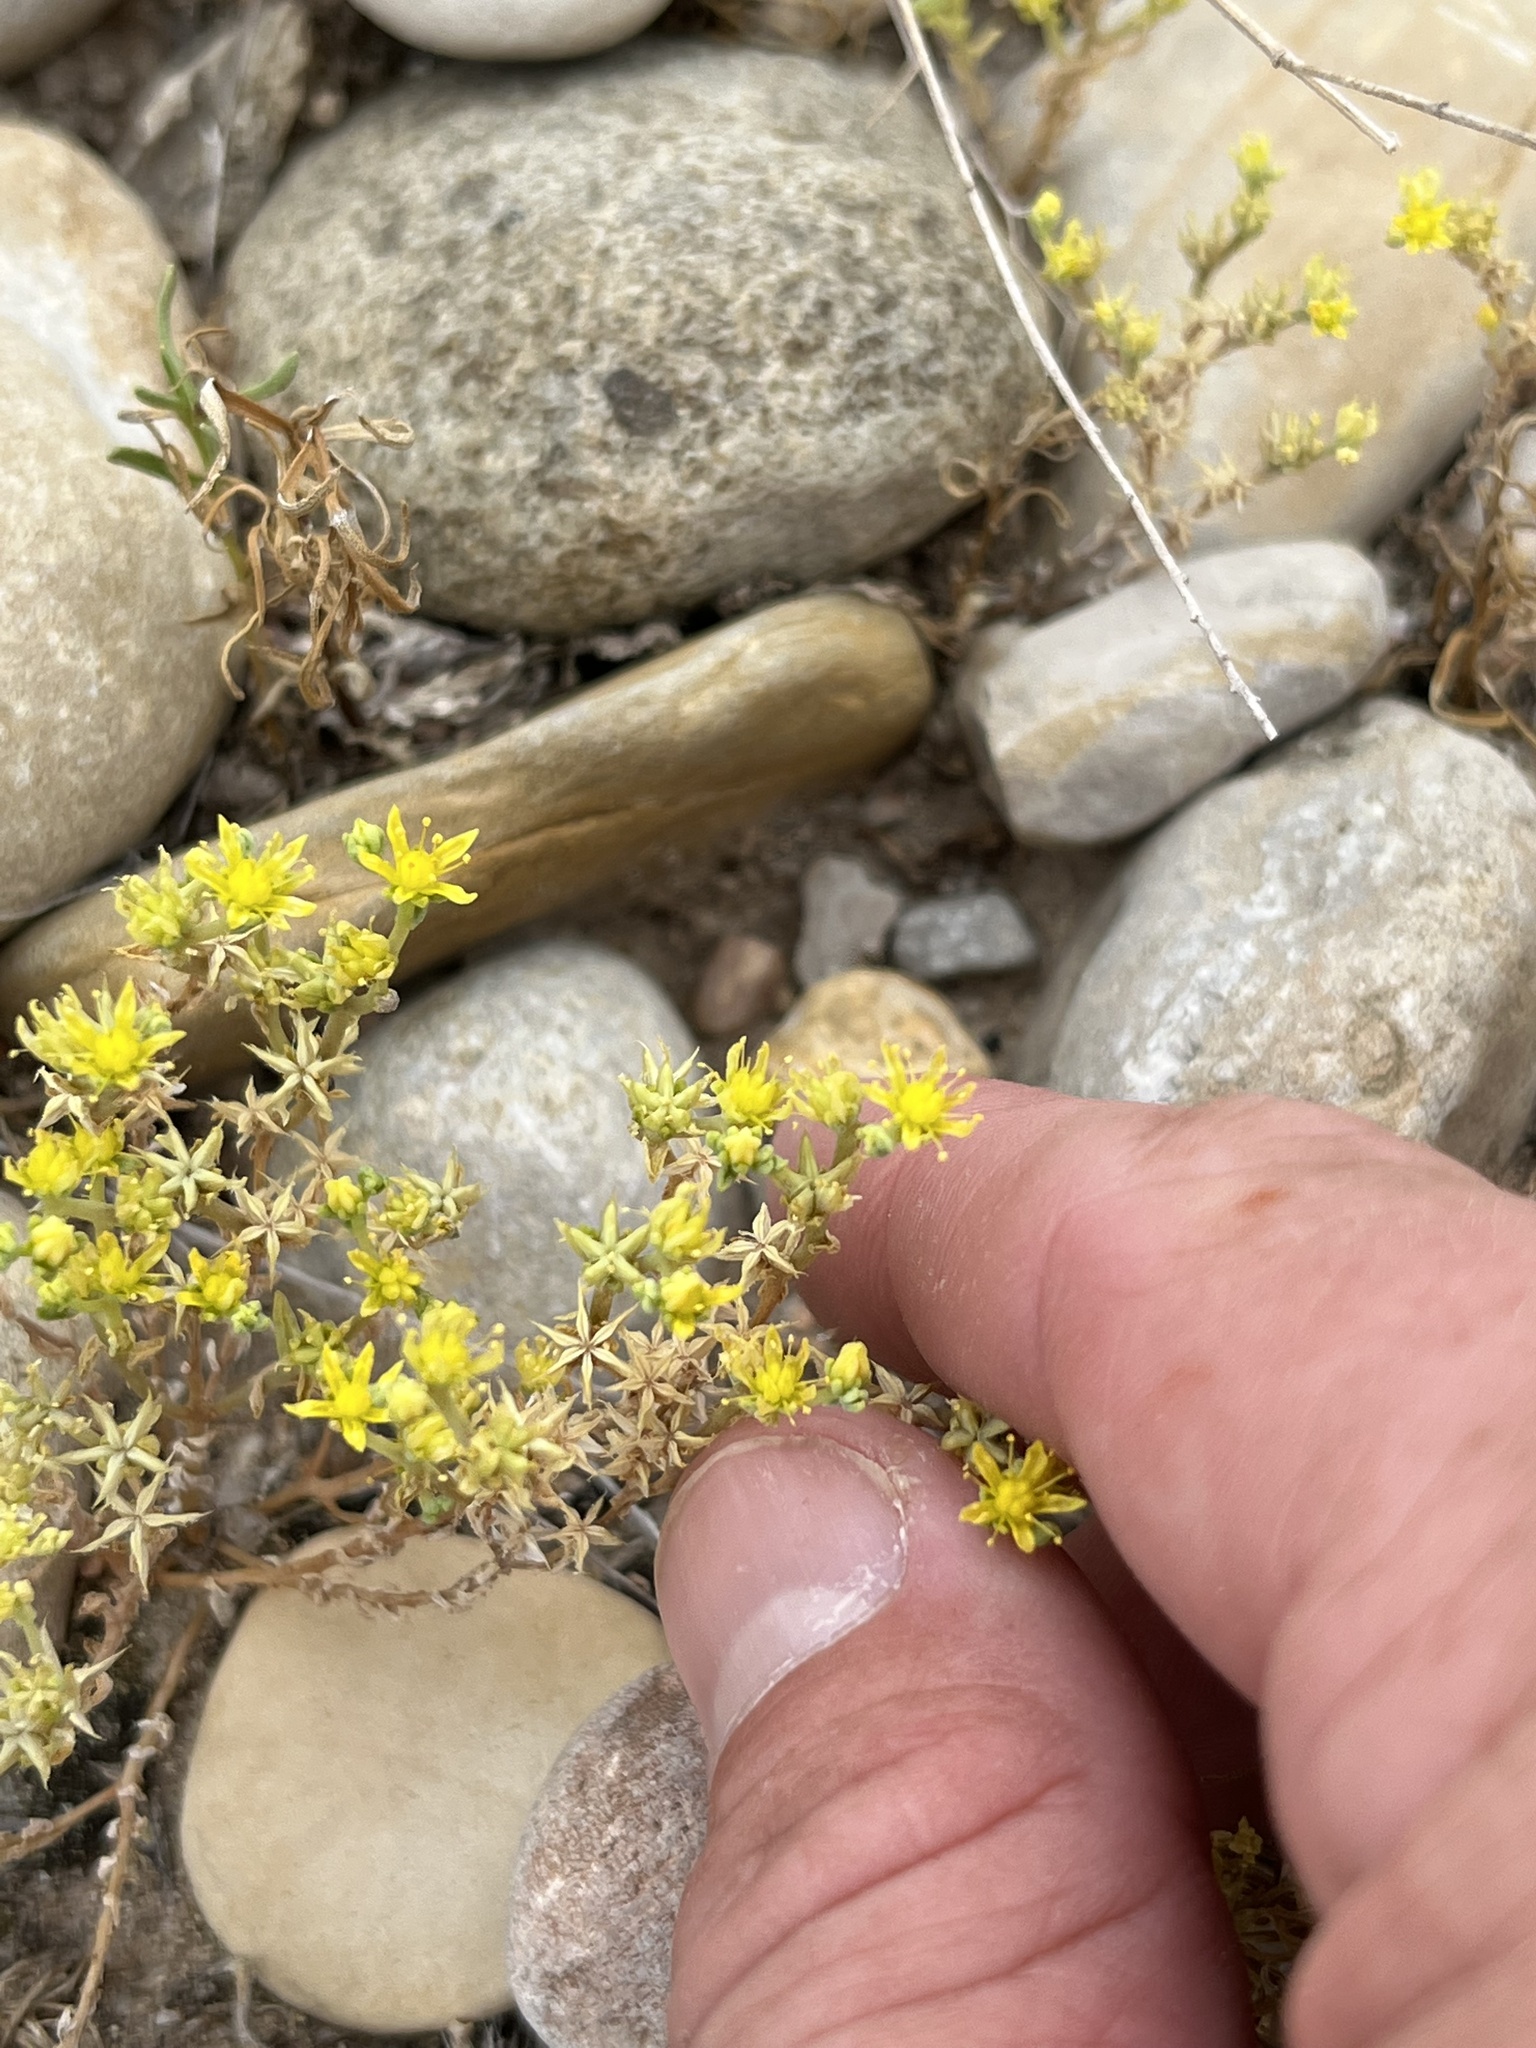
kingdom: Plantae
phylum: Tracheophyta
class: Magnoliopsida
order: Saxifragales
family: Crassulaceae
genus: Sedum
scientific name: Sedum nuttallii
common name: Yellow stonecrop
